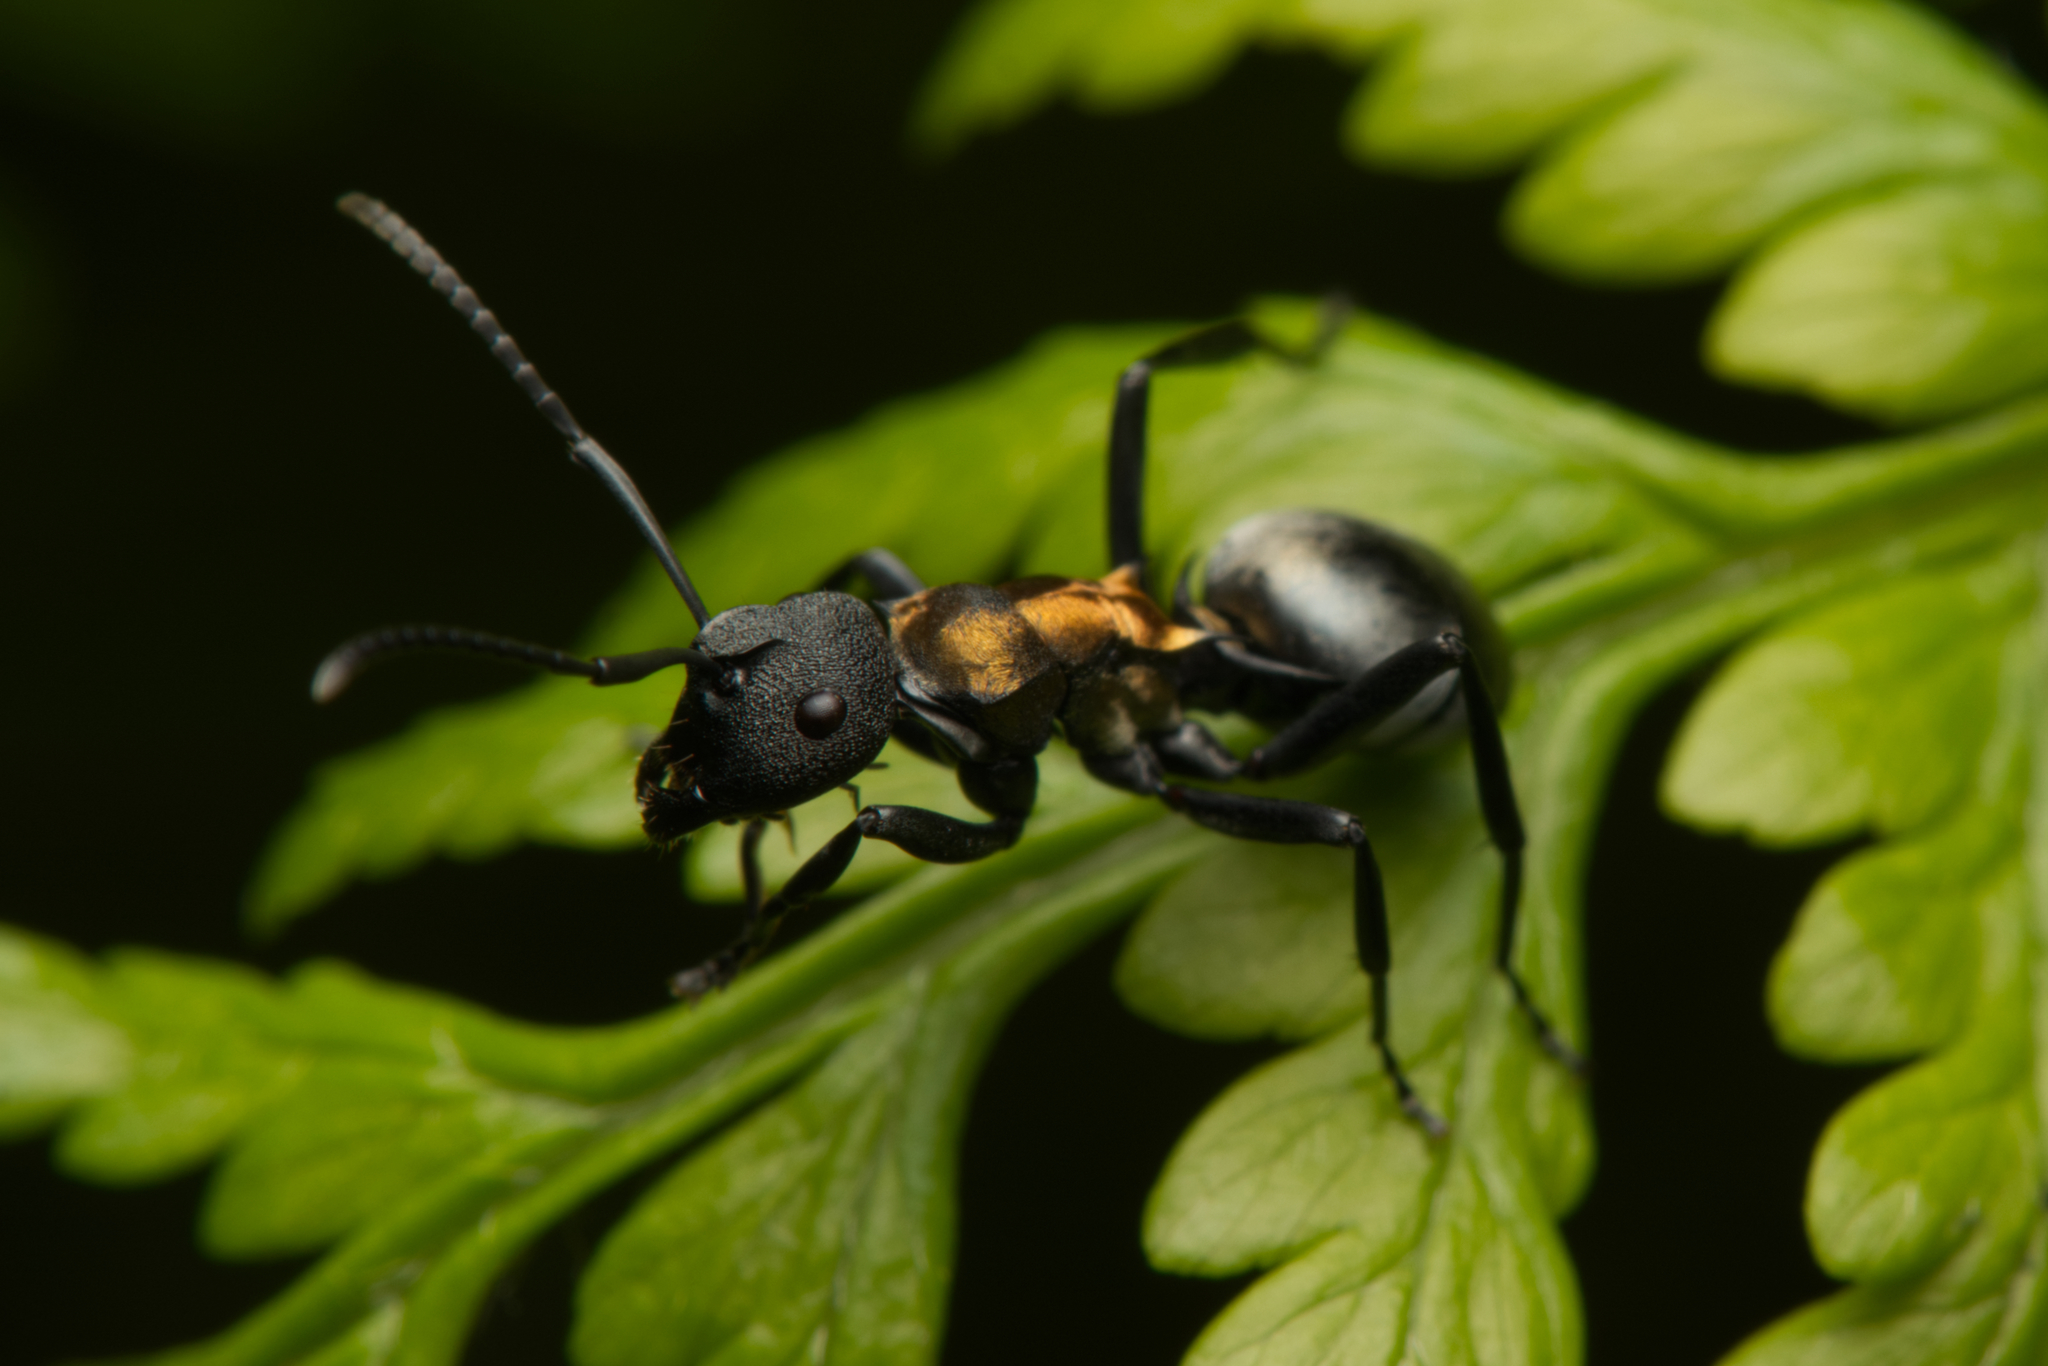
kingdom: Animalia
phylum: Arthropoda
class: Insecta
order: Hymenoptera
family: Formicidae
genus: Polyrhachis
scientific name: Polyrhachis ornata
